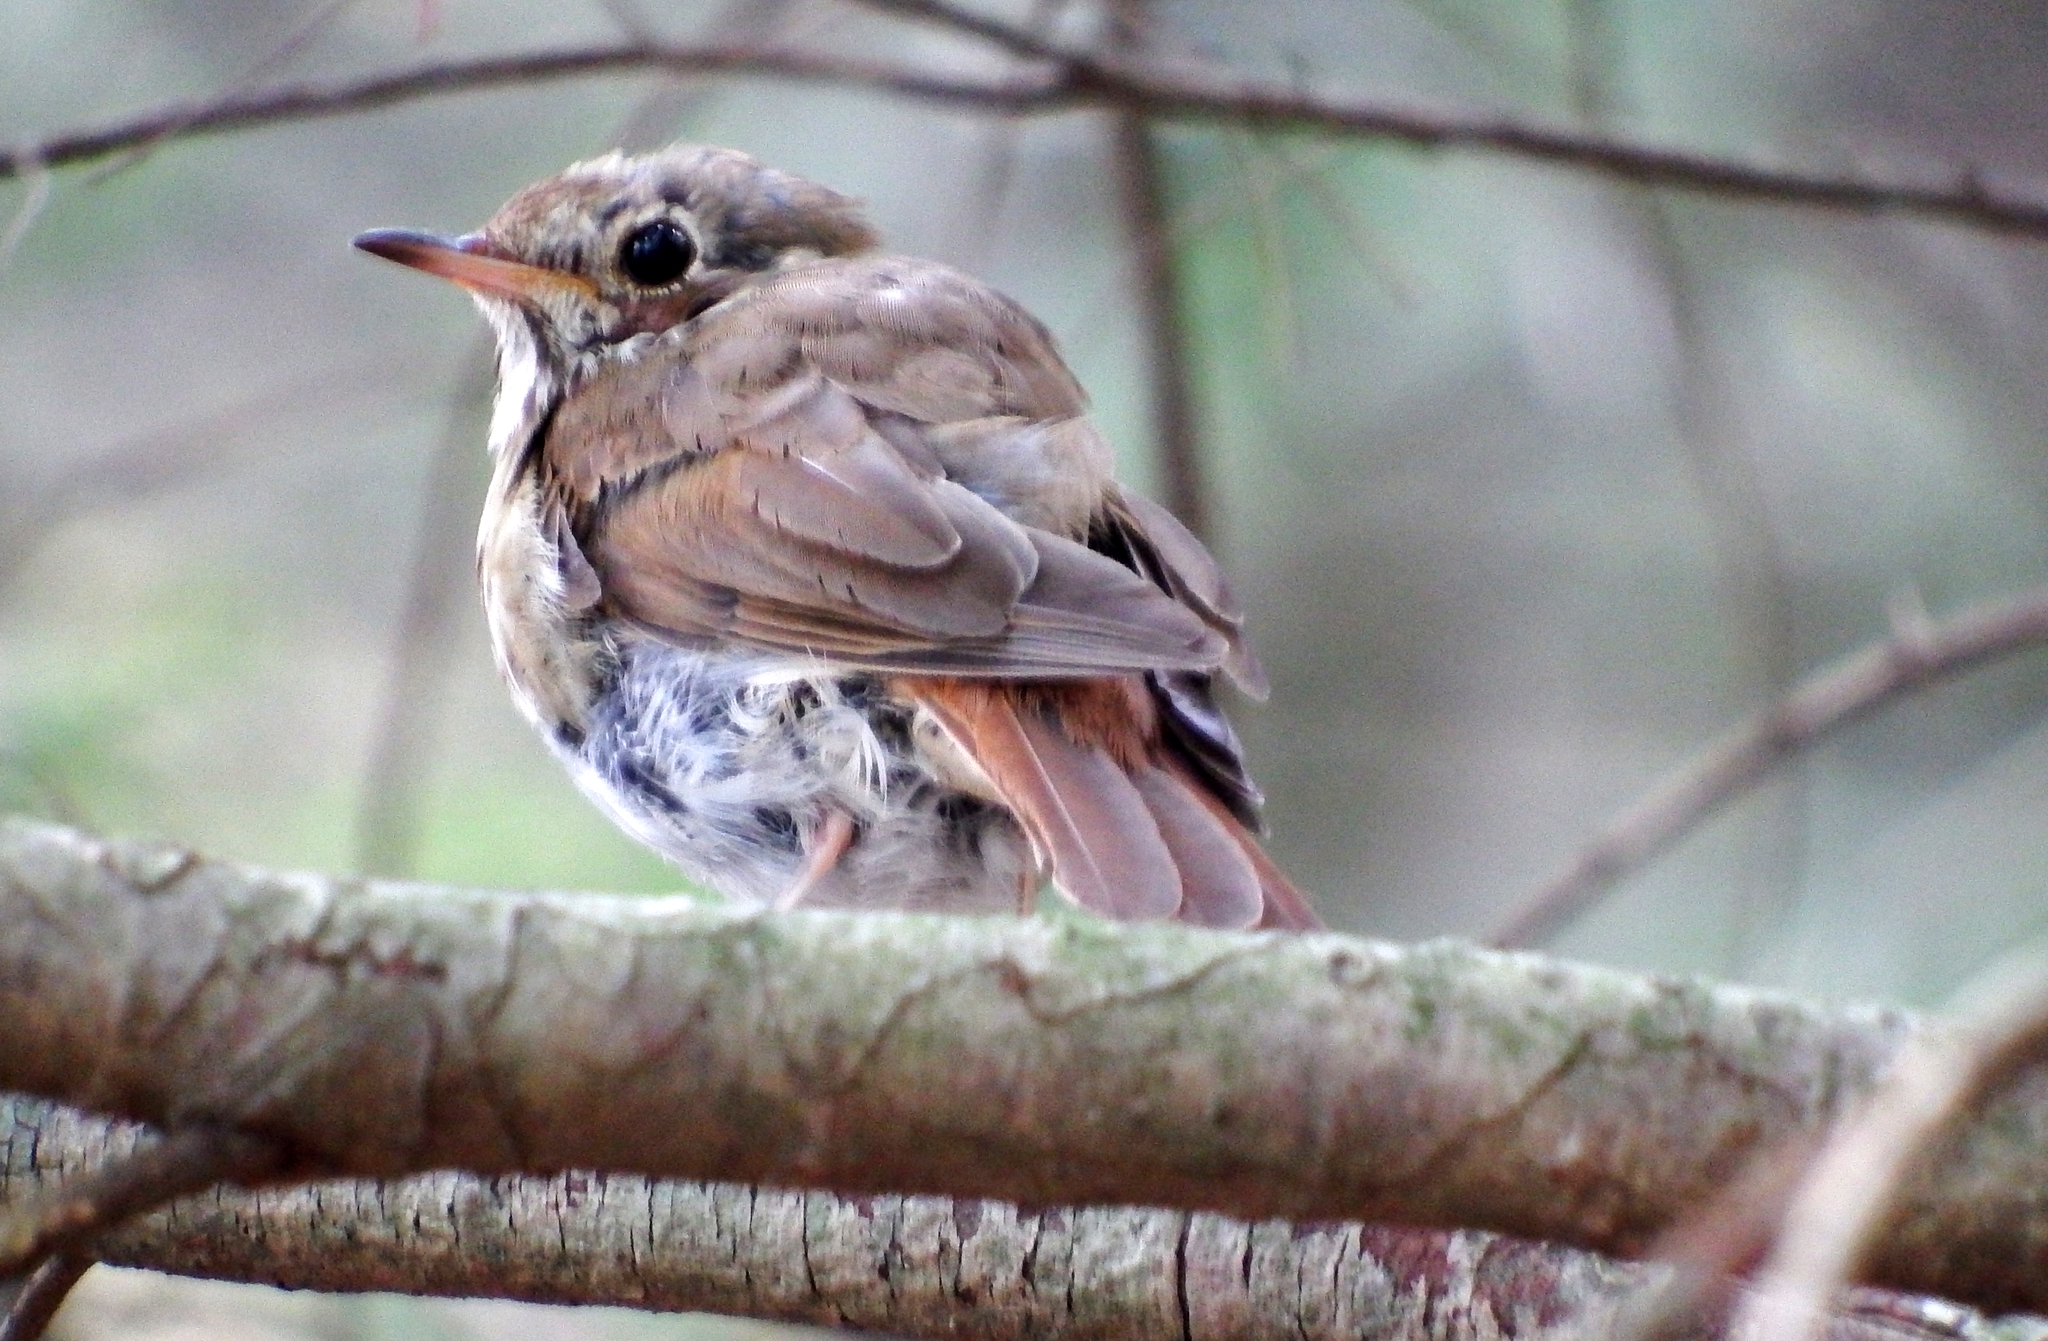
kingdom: Animalia
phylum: Chordata
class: Aves
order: Passeriformes
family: Turdidae
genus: Catharus
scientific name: Catharus guttatus
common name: Hermit thrush
